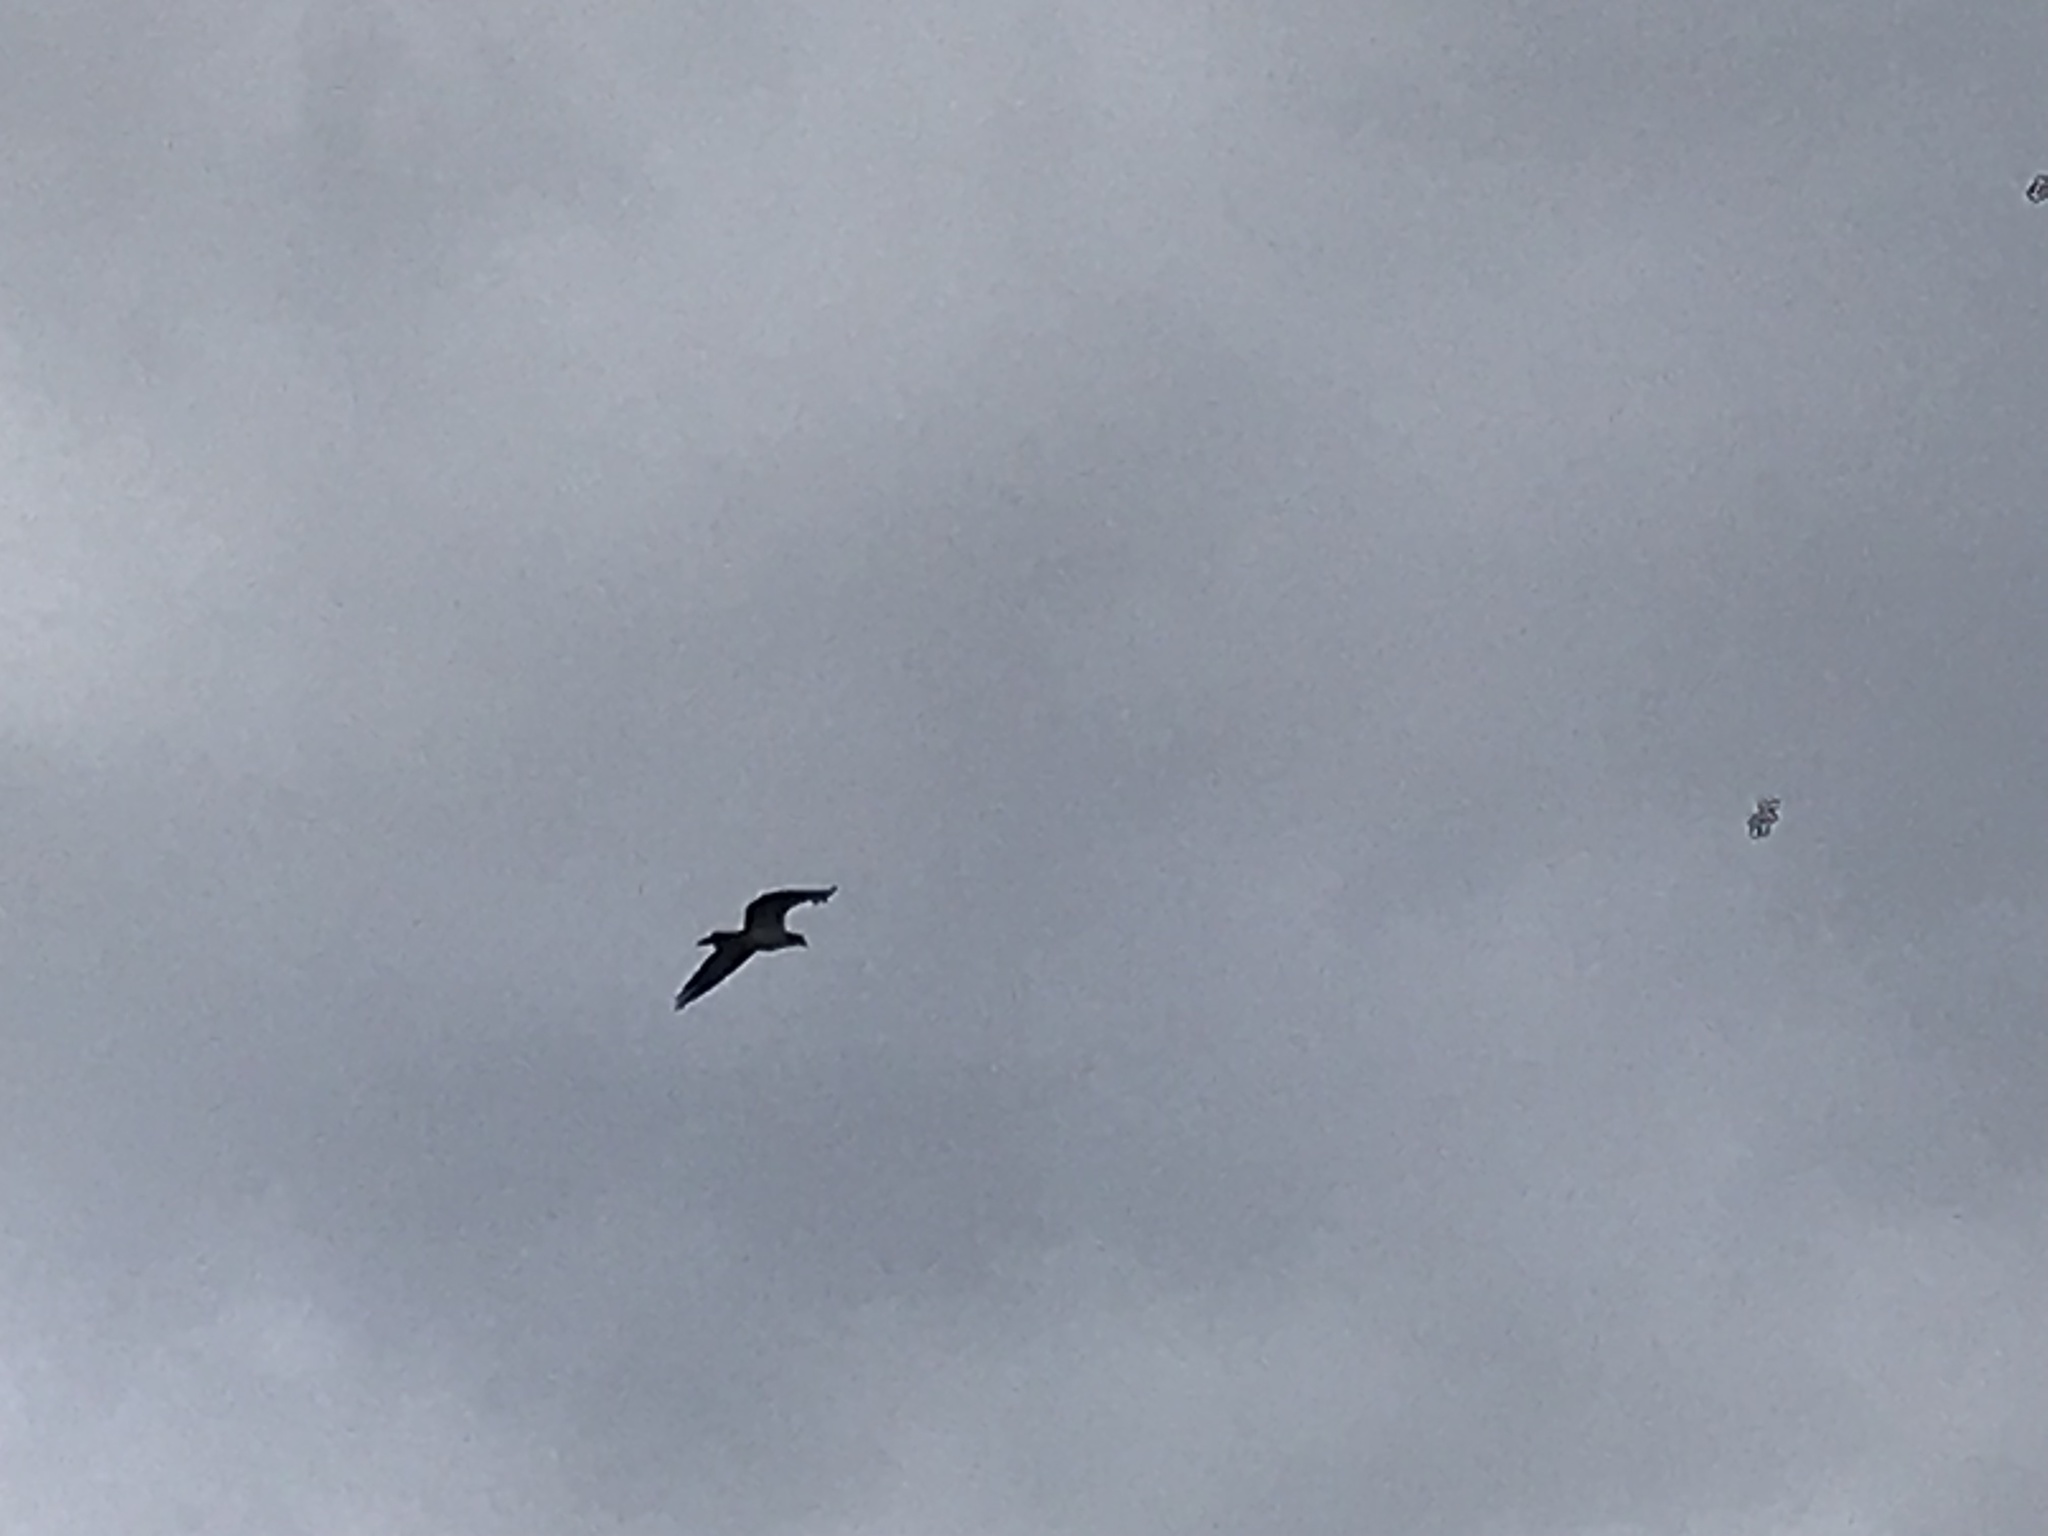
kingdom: Animalia
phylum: Chordata
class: Aves
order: Accipitriformes
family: Pandionidae
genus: Pandion
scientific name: Pandion haliaetus
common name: Osprey
